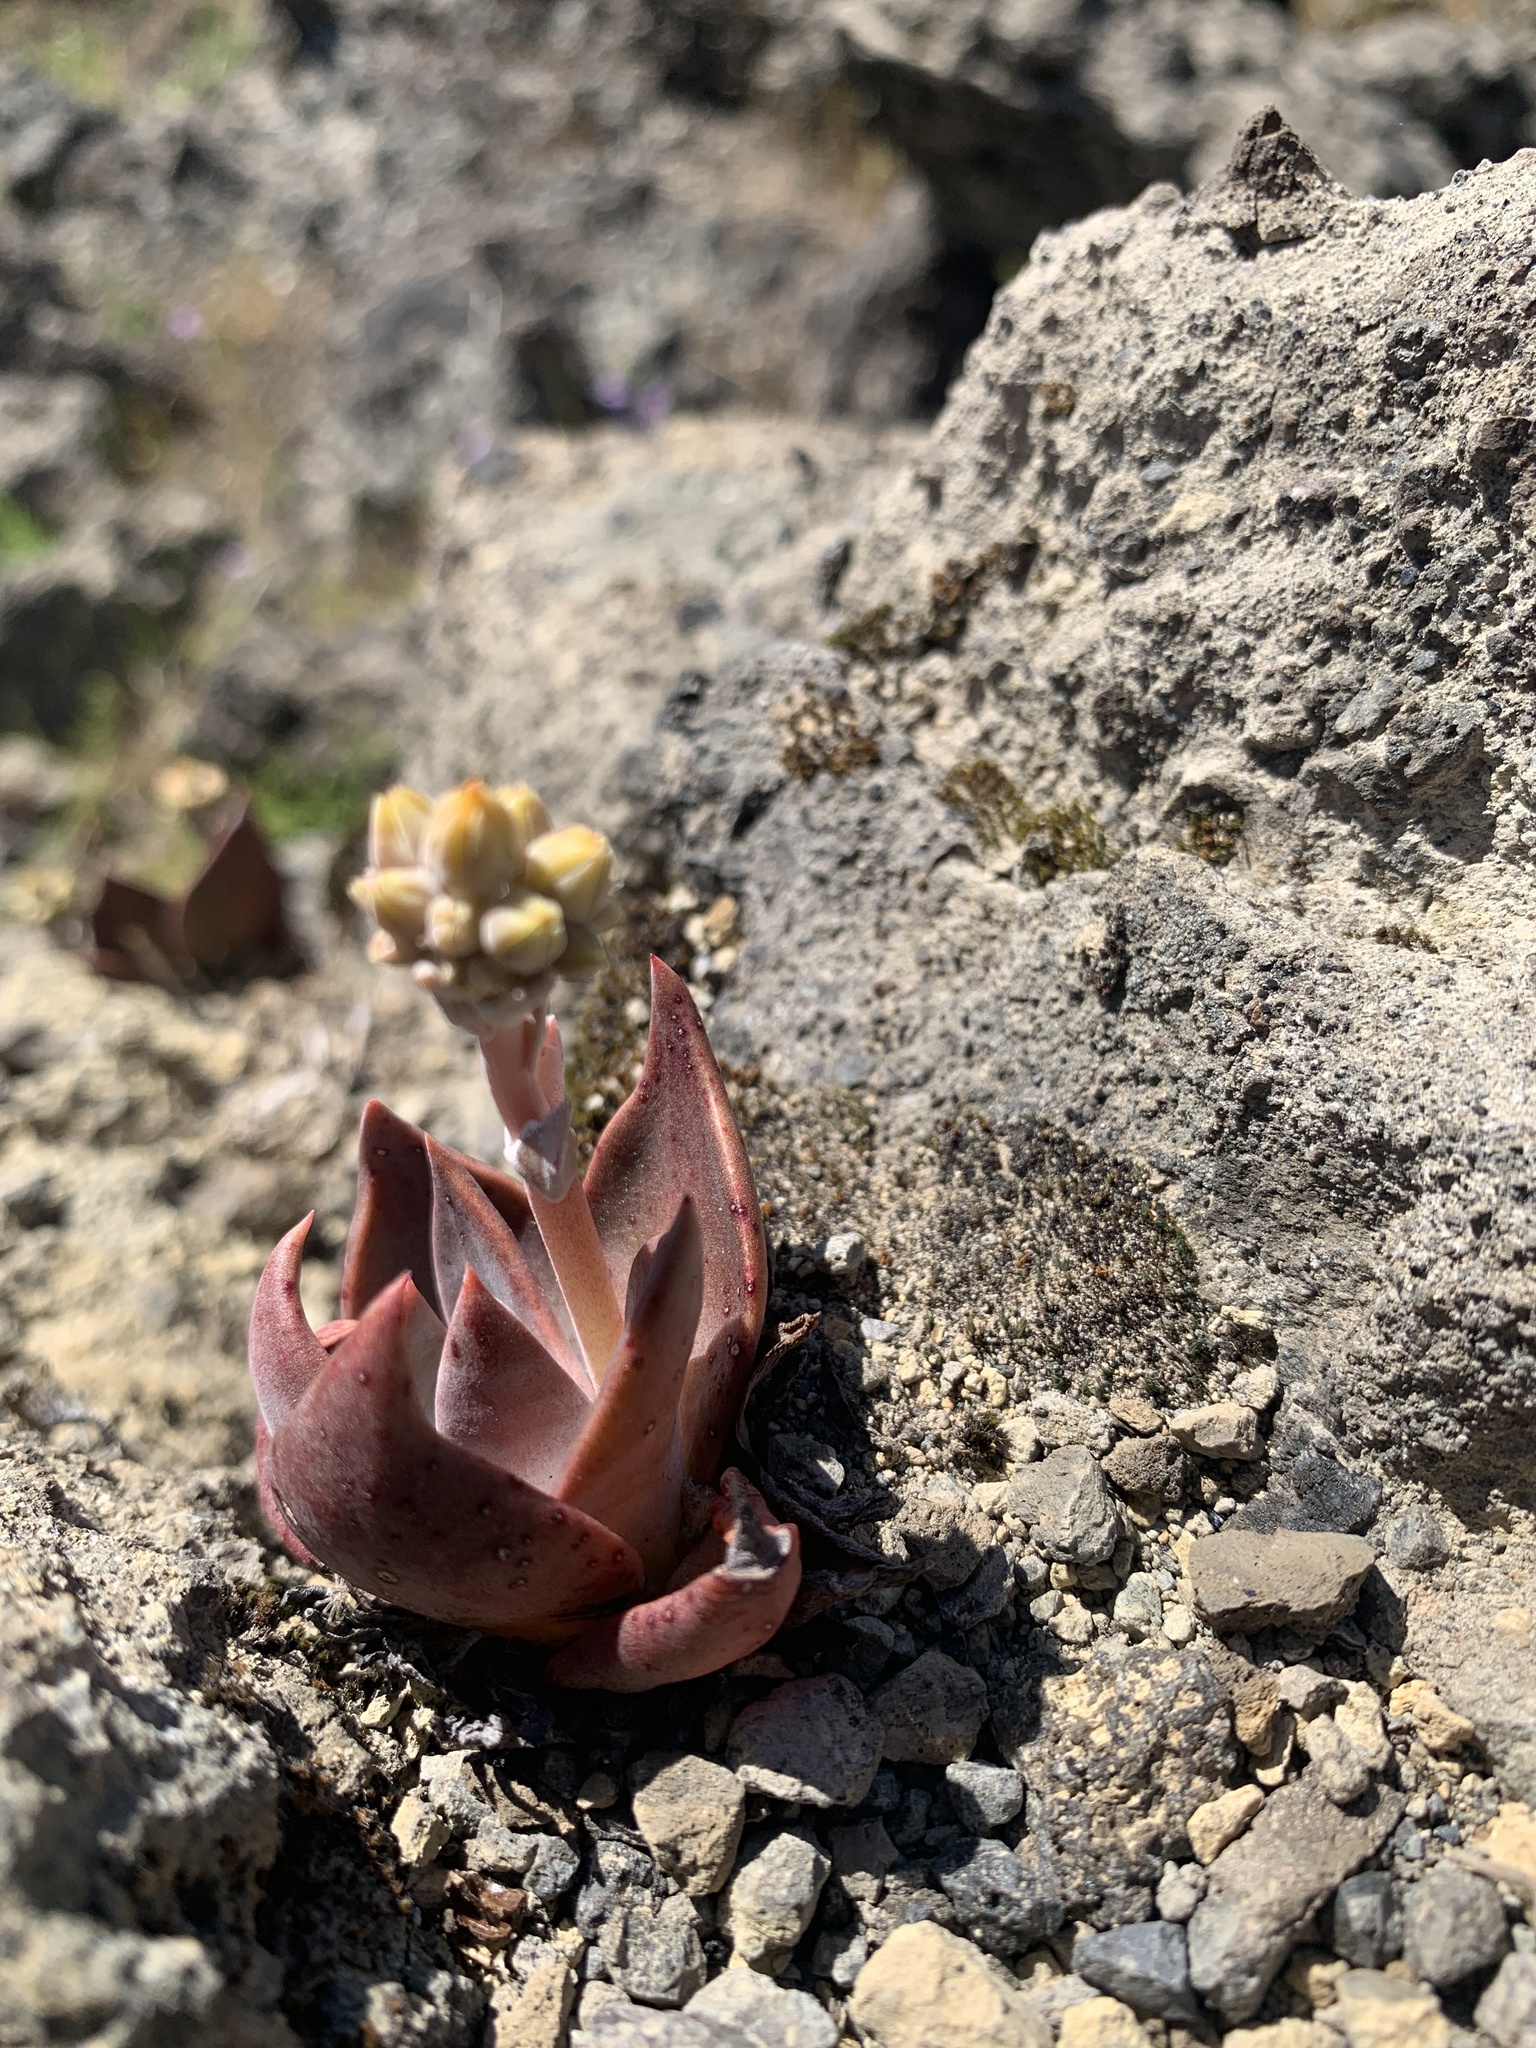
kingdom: Plantae
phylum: Tracheophyta
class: Magnoliopsida
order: Saxifragales
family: Crassulaceae
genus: Dudleya
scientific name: Dudleya cymosa
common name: Canyon dudleya
